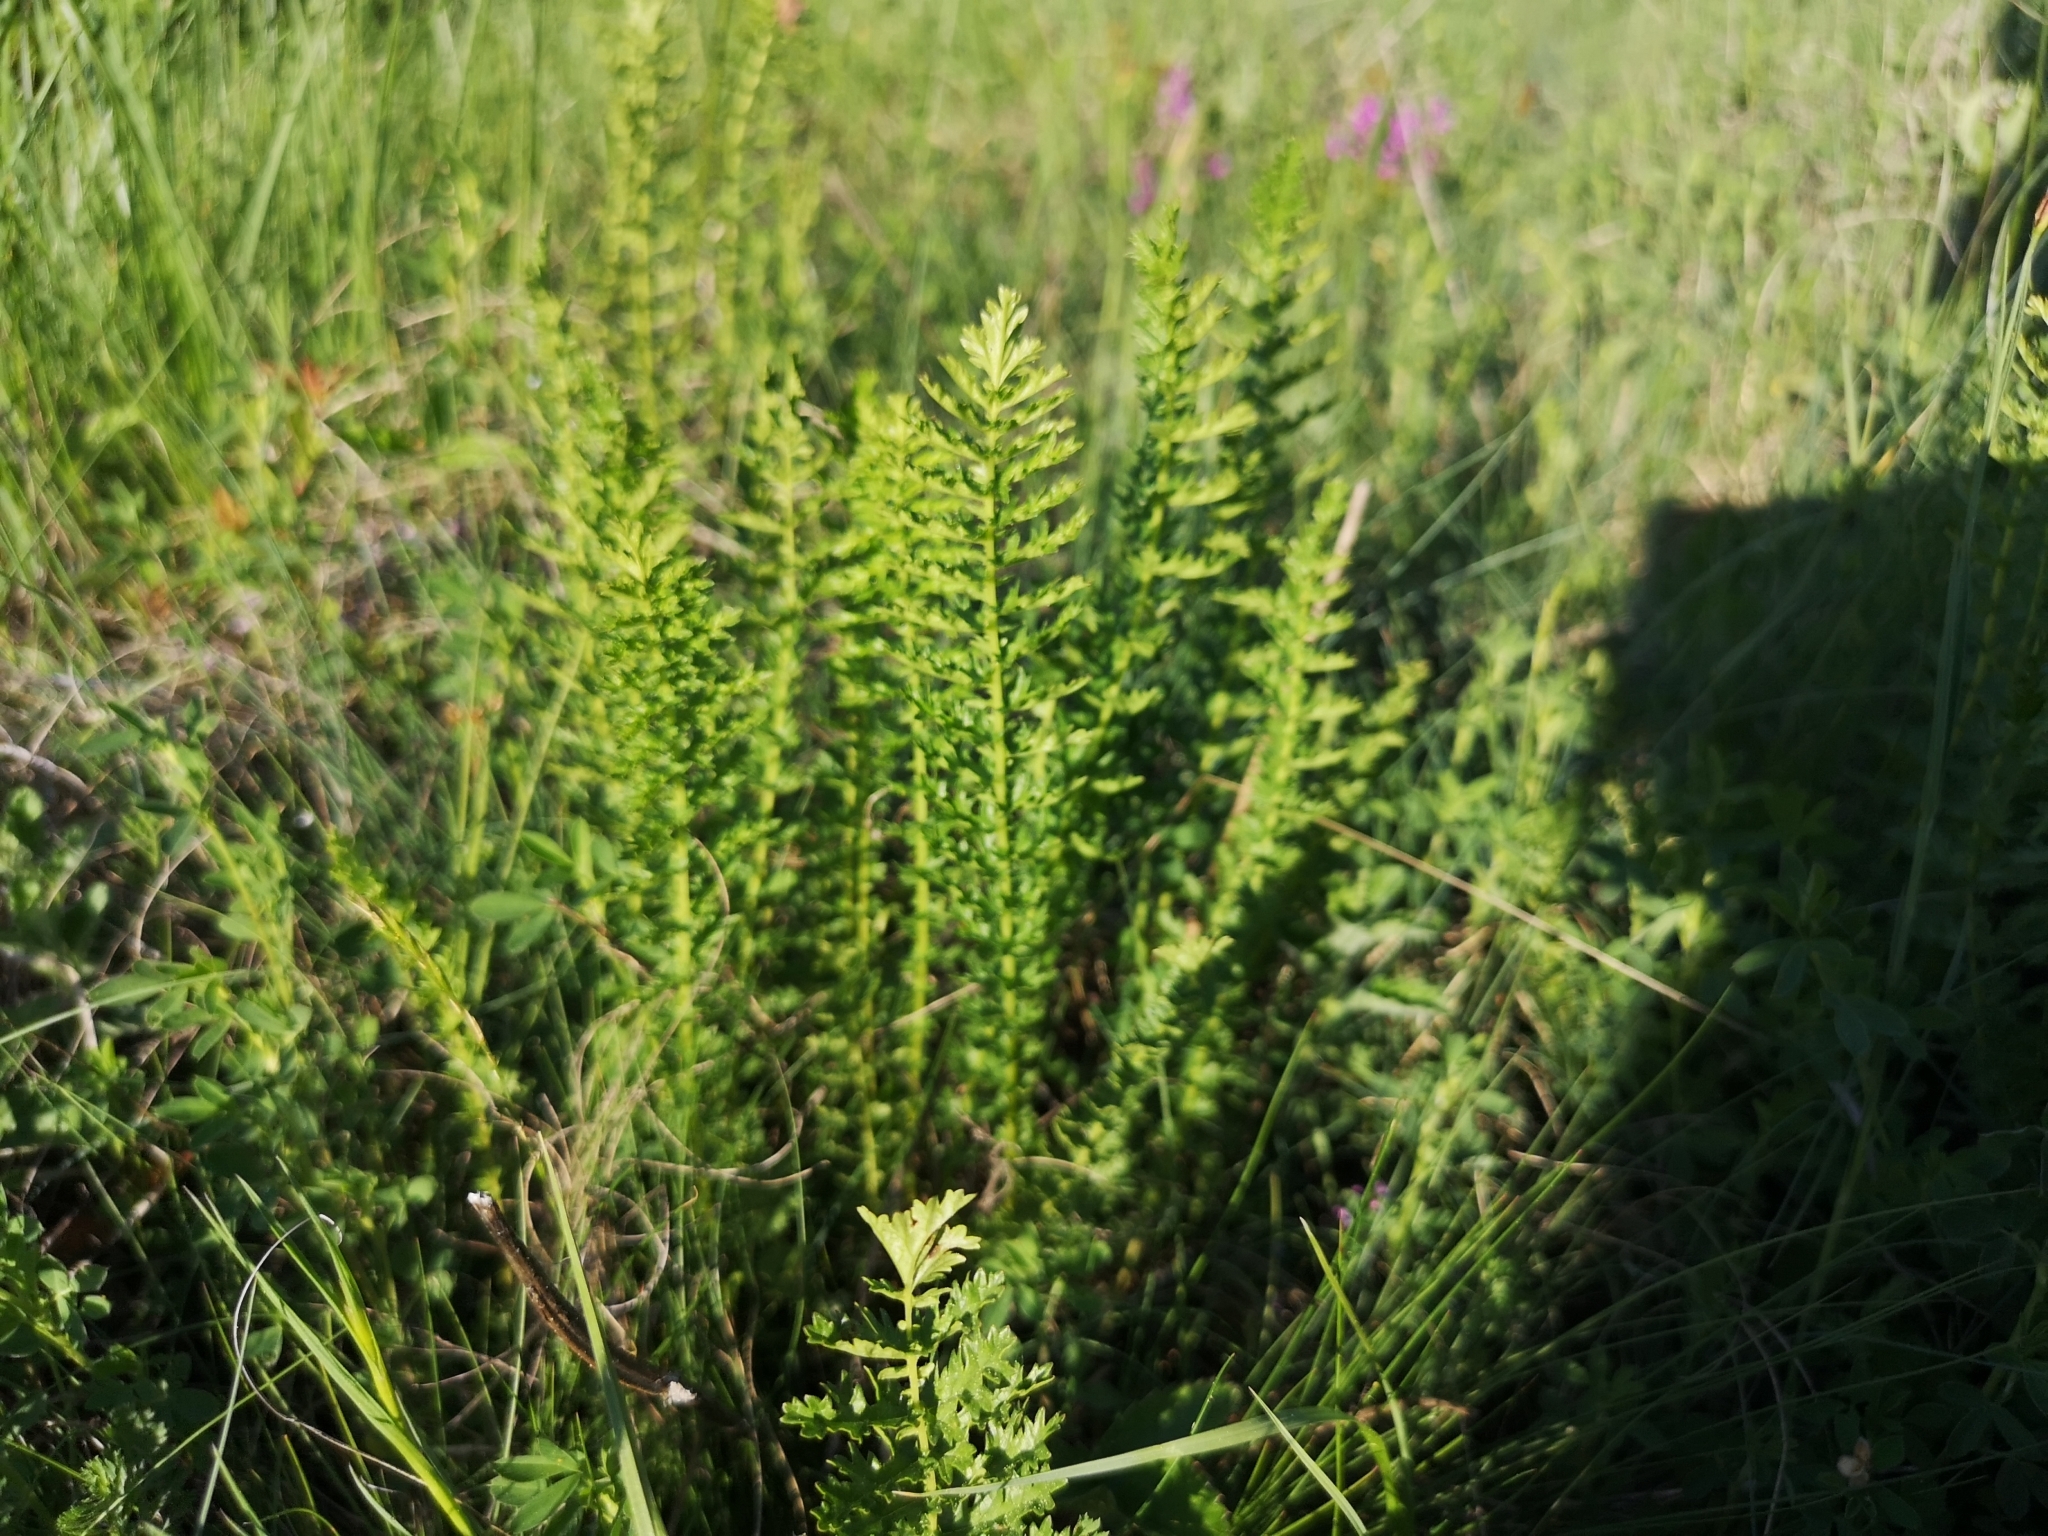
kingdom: Plantae
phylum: Tracheophyta
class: Magnoliopsida
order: Rosales
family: Rosaceae
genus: Filipendula
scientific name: Filipendula vulgaris
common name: Dropwort
